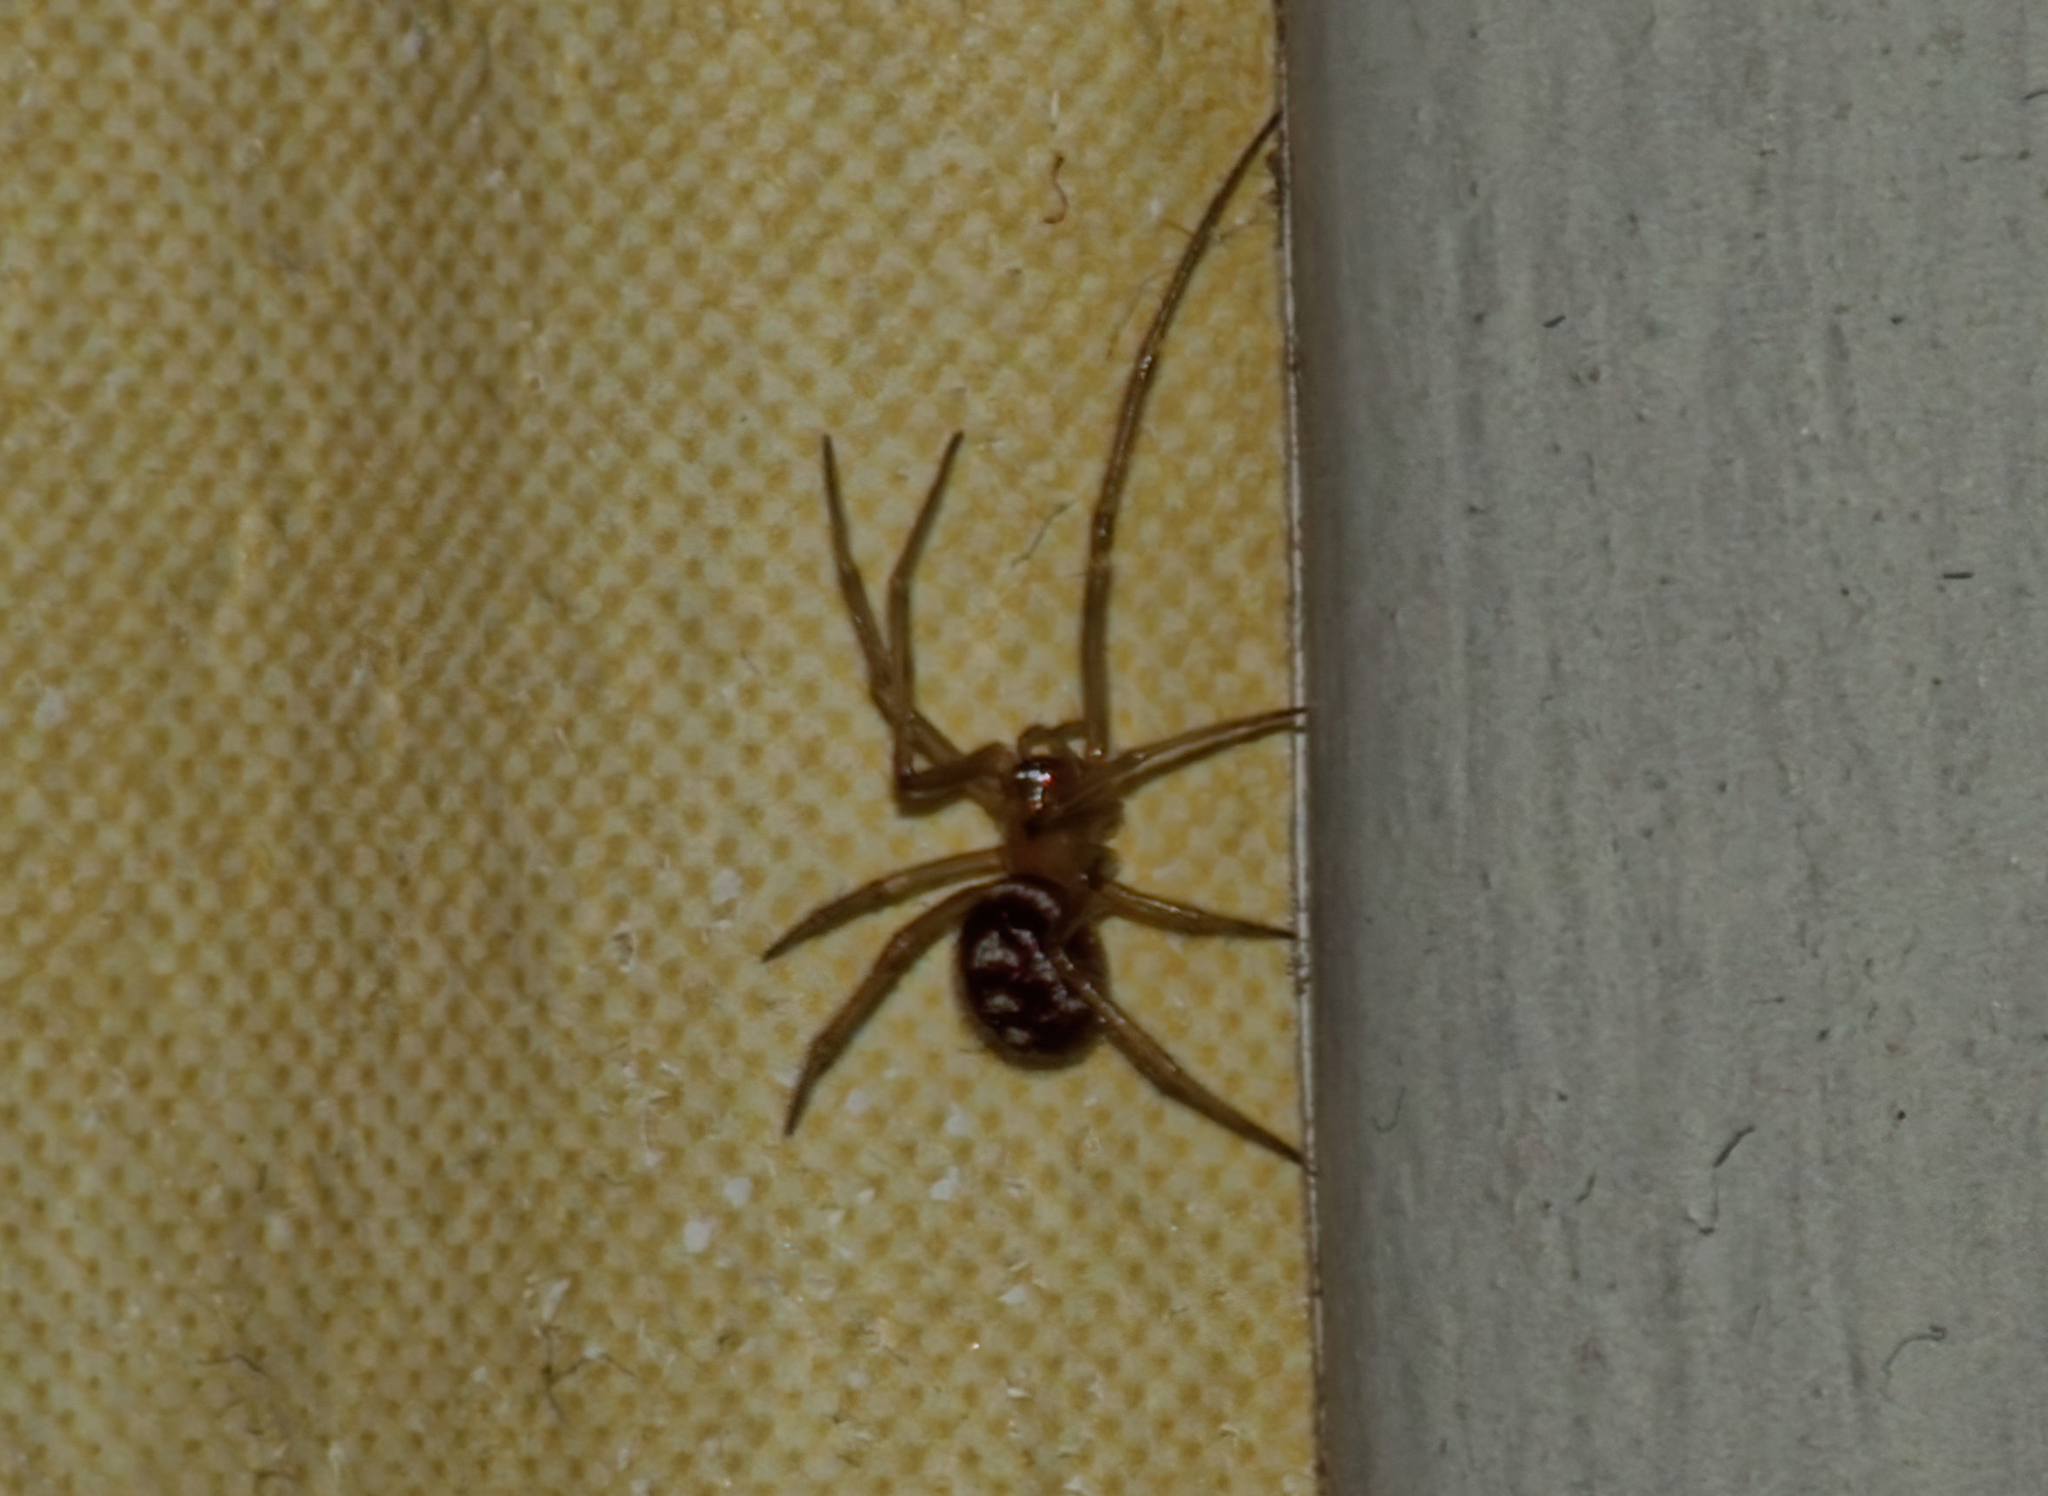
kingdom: Animalia
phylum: Arthropoda
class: Arachnida
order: Araneae
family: Theridiidae
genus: Steatoda
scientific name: Steatoda grossa
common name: False black widow
